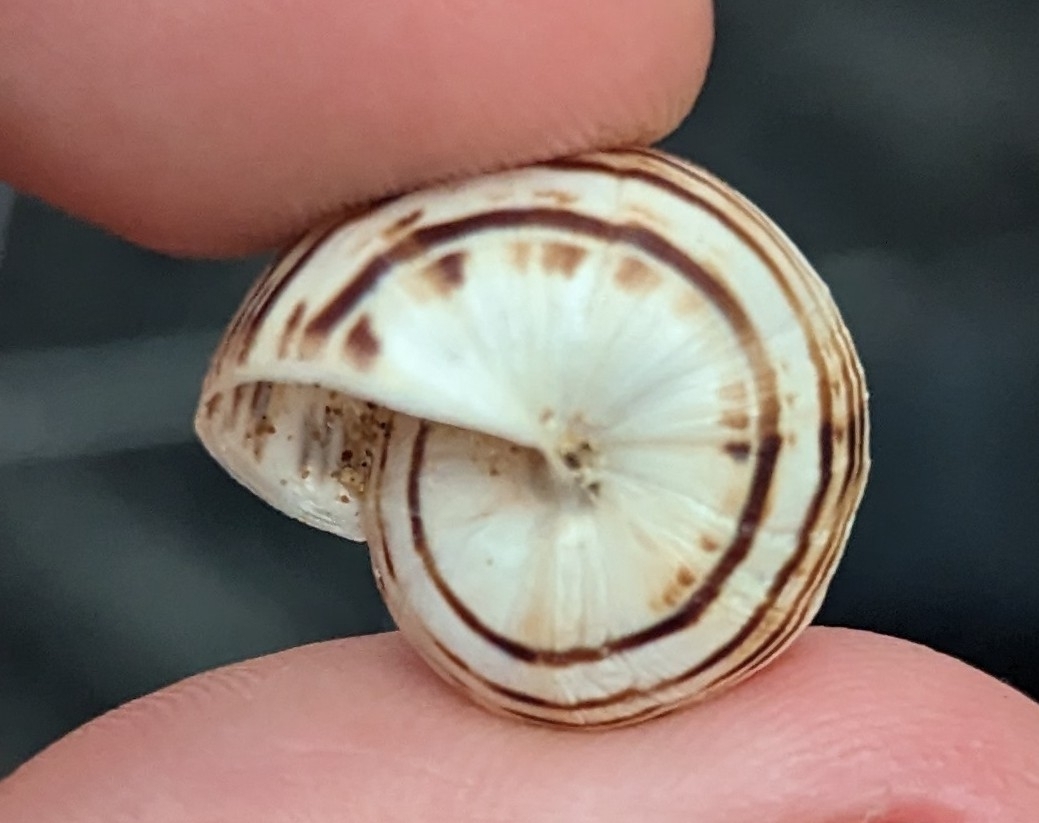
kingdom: Animalia
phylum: Mollusca
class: Gastropoda
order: Stylommatophora
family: Helicidae
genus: Theba
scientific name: Theba pisana
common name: White snail
